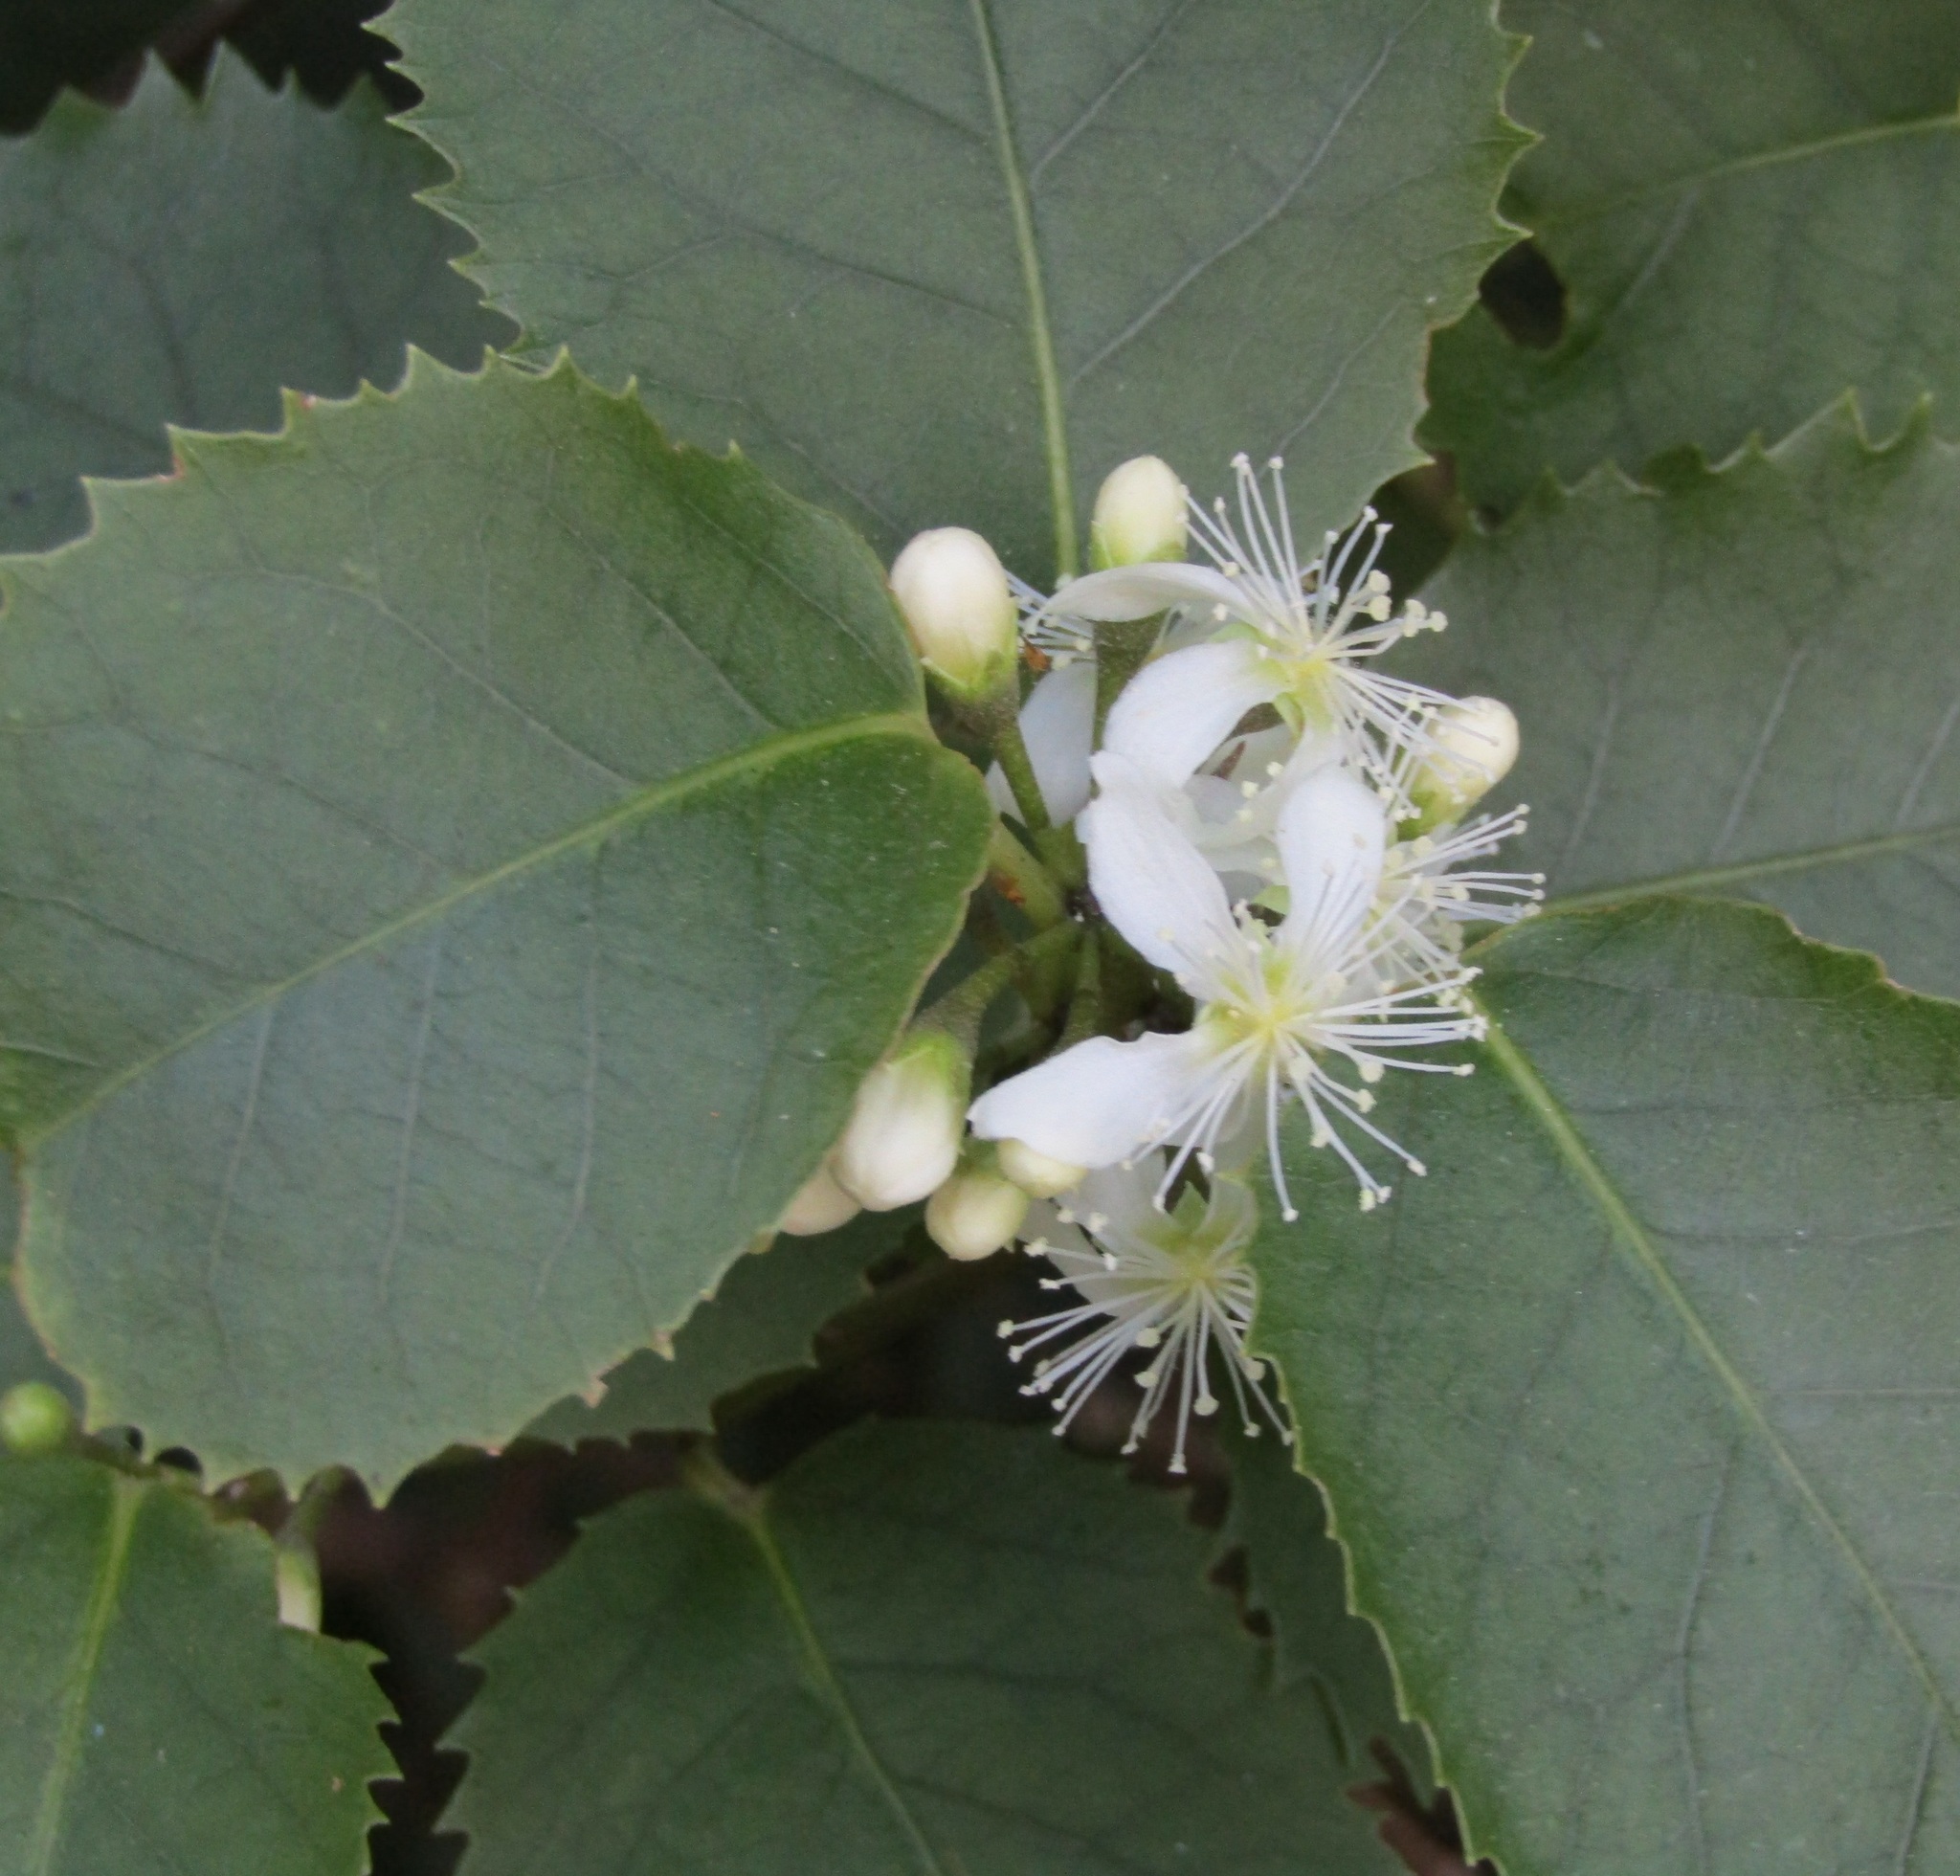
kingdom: Plantae
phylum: Tracheophyta
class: Magnoliopsida
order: Malvales
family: Malvaceae
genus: Hoheria
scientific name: Hoheria populnea
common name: Lacebark
